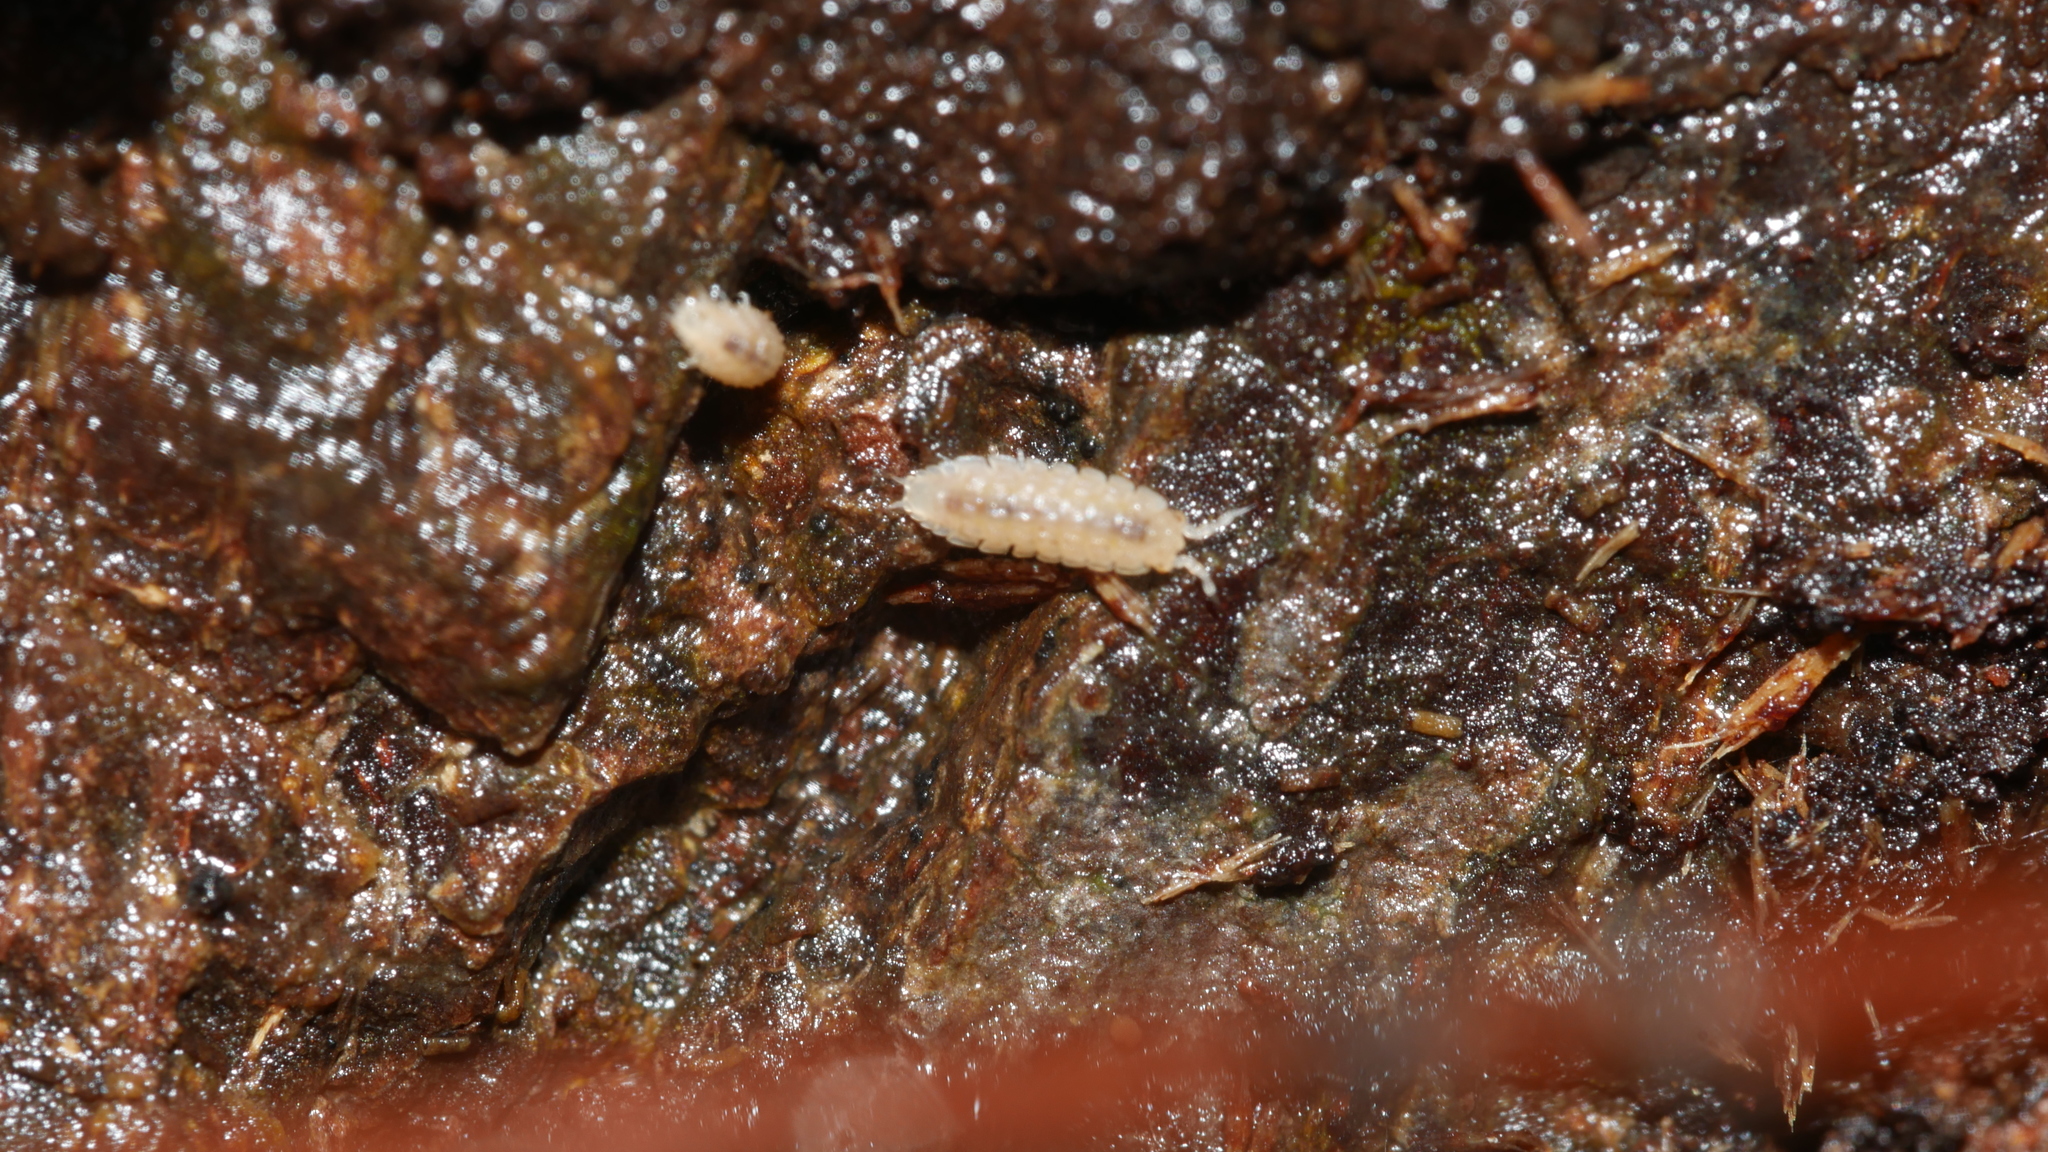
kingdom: Animalia
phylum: Arthropoda
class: Malacostraca
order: Isopoda
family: Trichoniscidae
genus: Haplophthalmus
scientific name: Haplophthalmus danicus
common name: Pillbug
